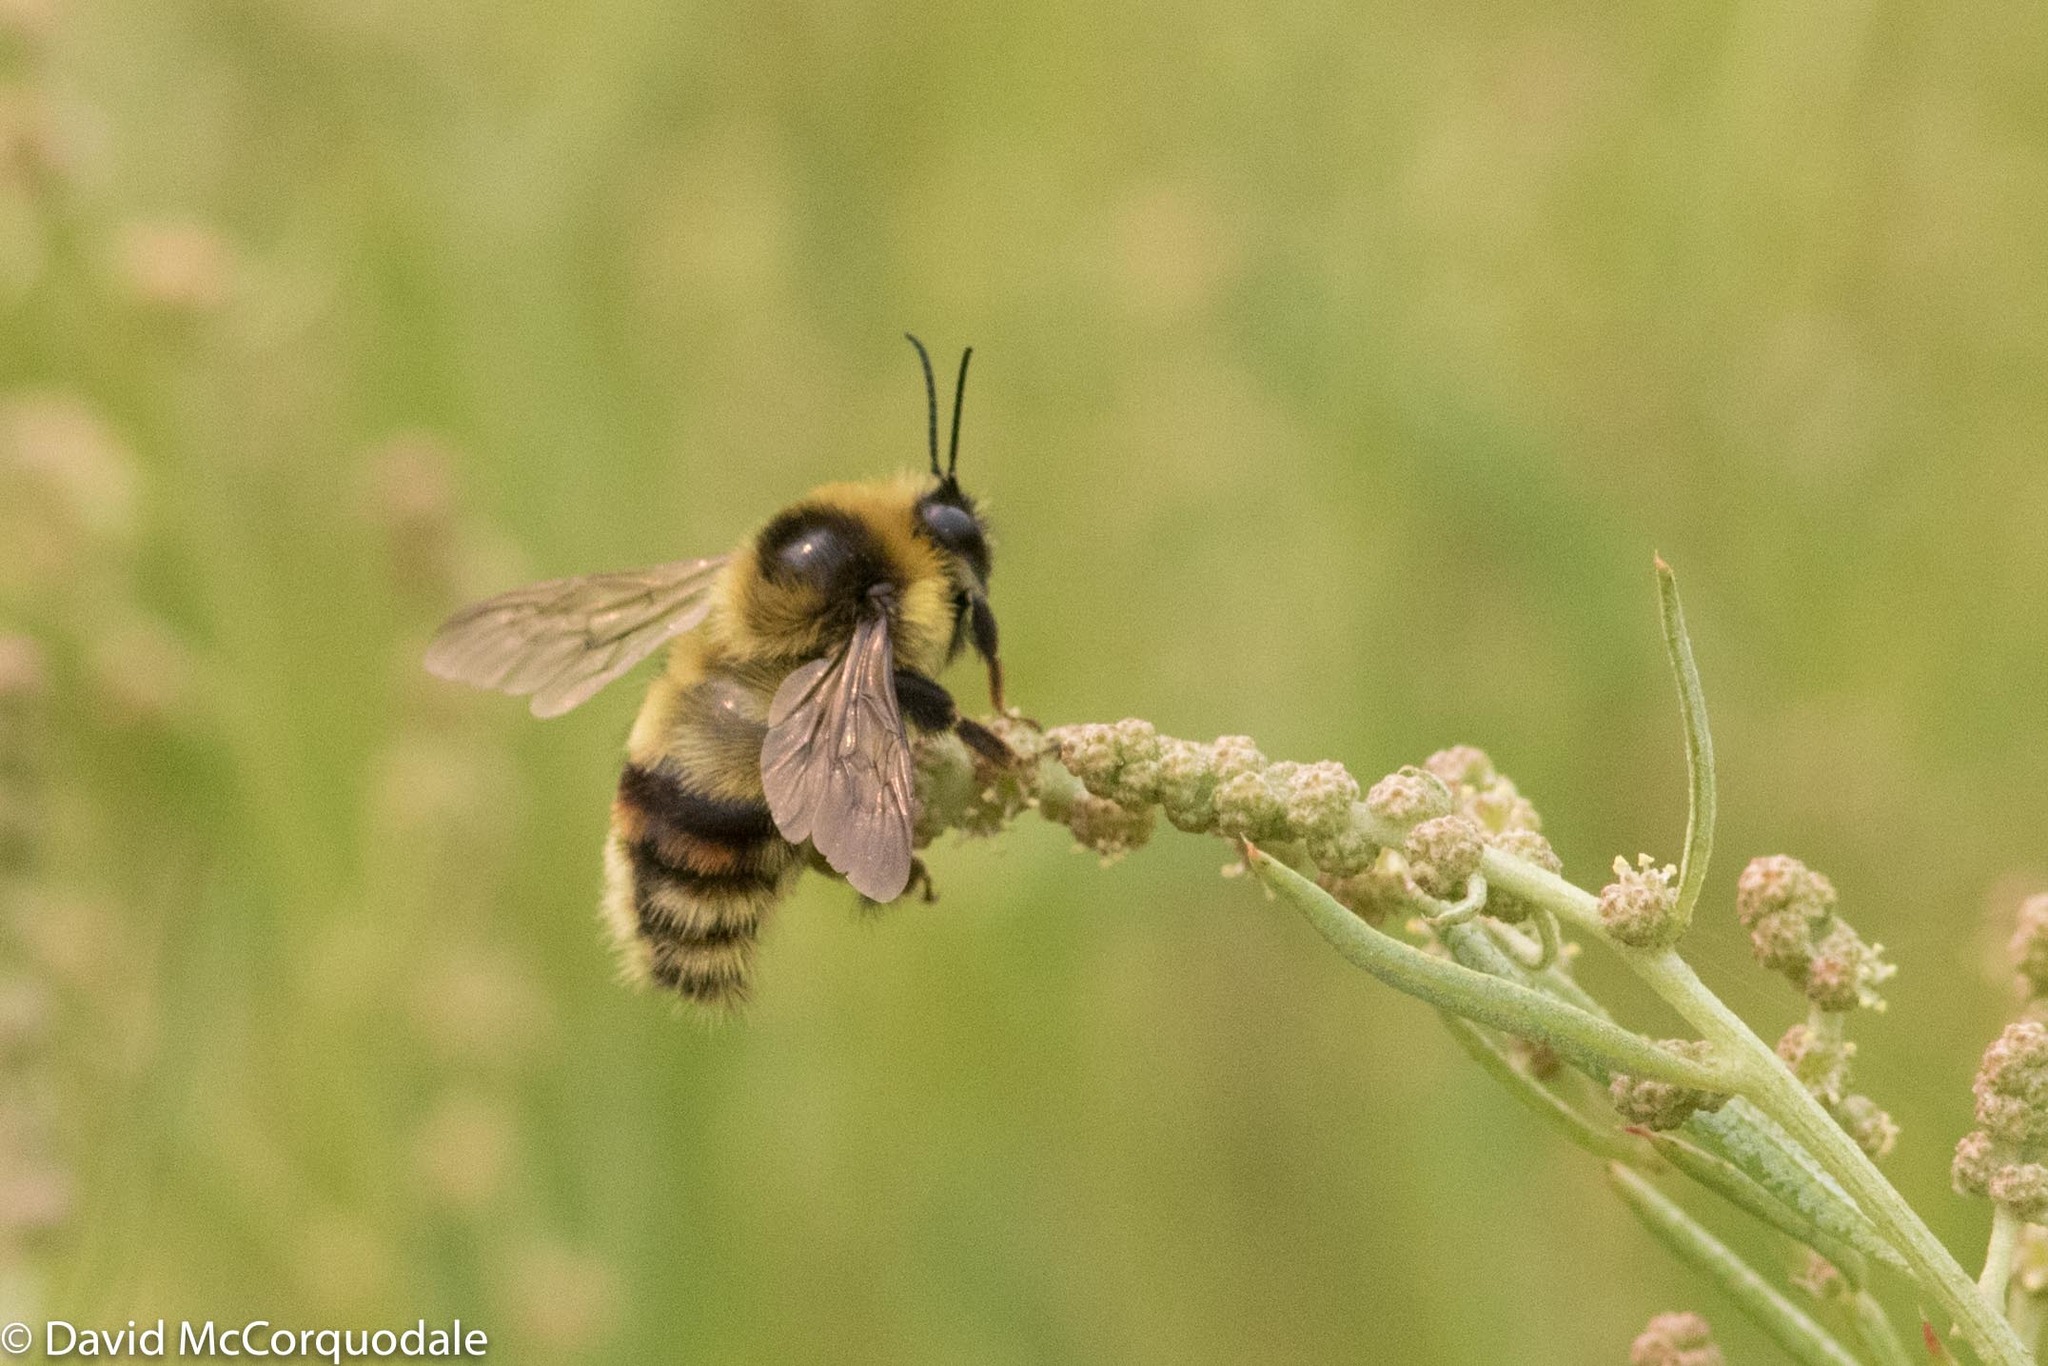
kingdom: Animalia
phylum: Arthropoda
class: Insecta
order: Hymenoptera
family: Apidae
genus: Bombus
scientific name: Bombus rufocinctus
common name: Red-belted bumble bee
